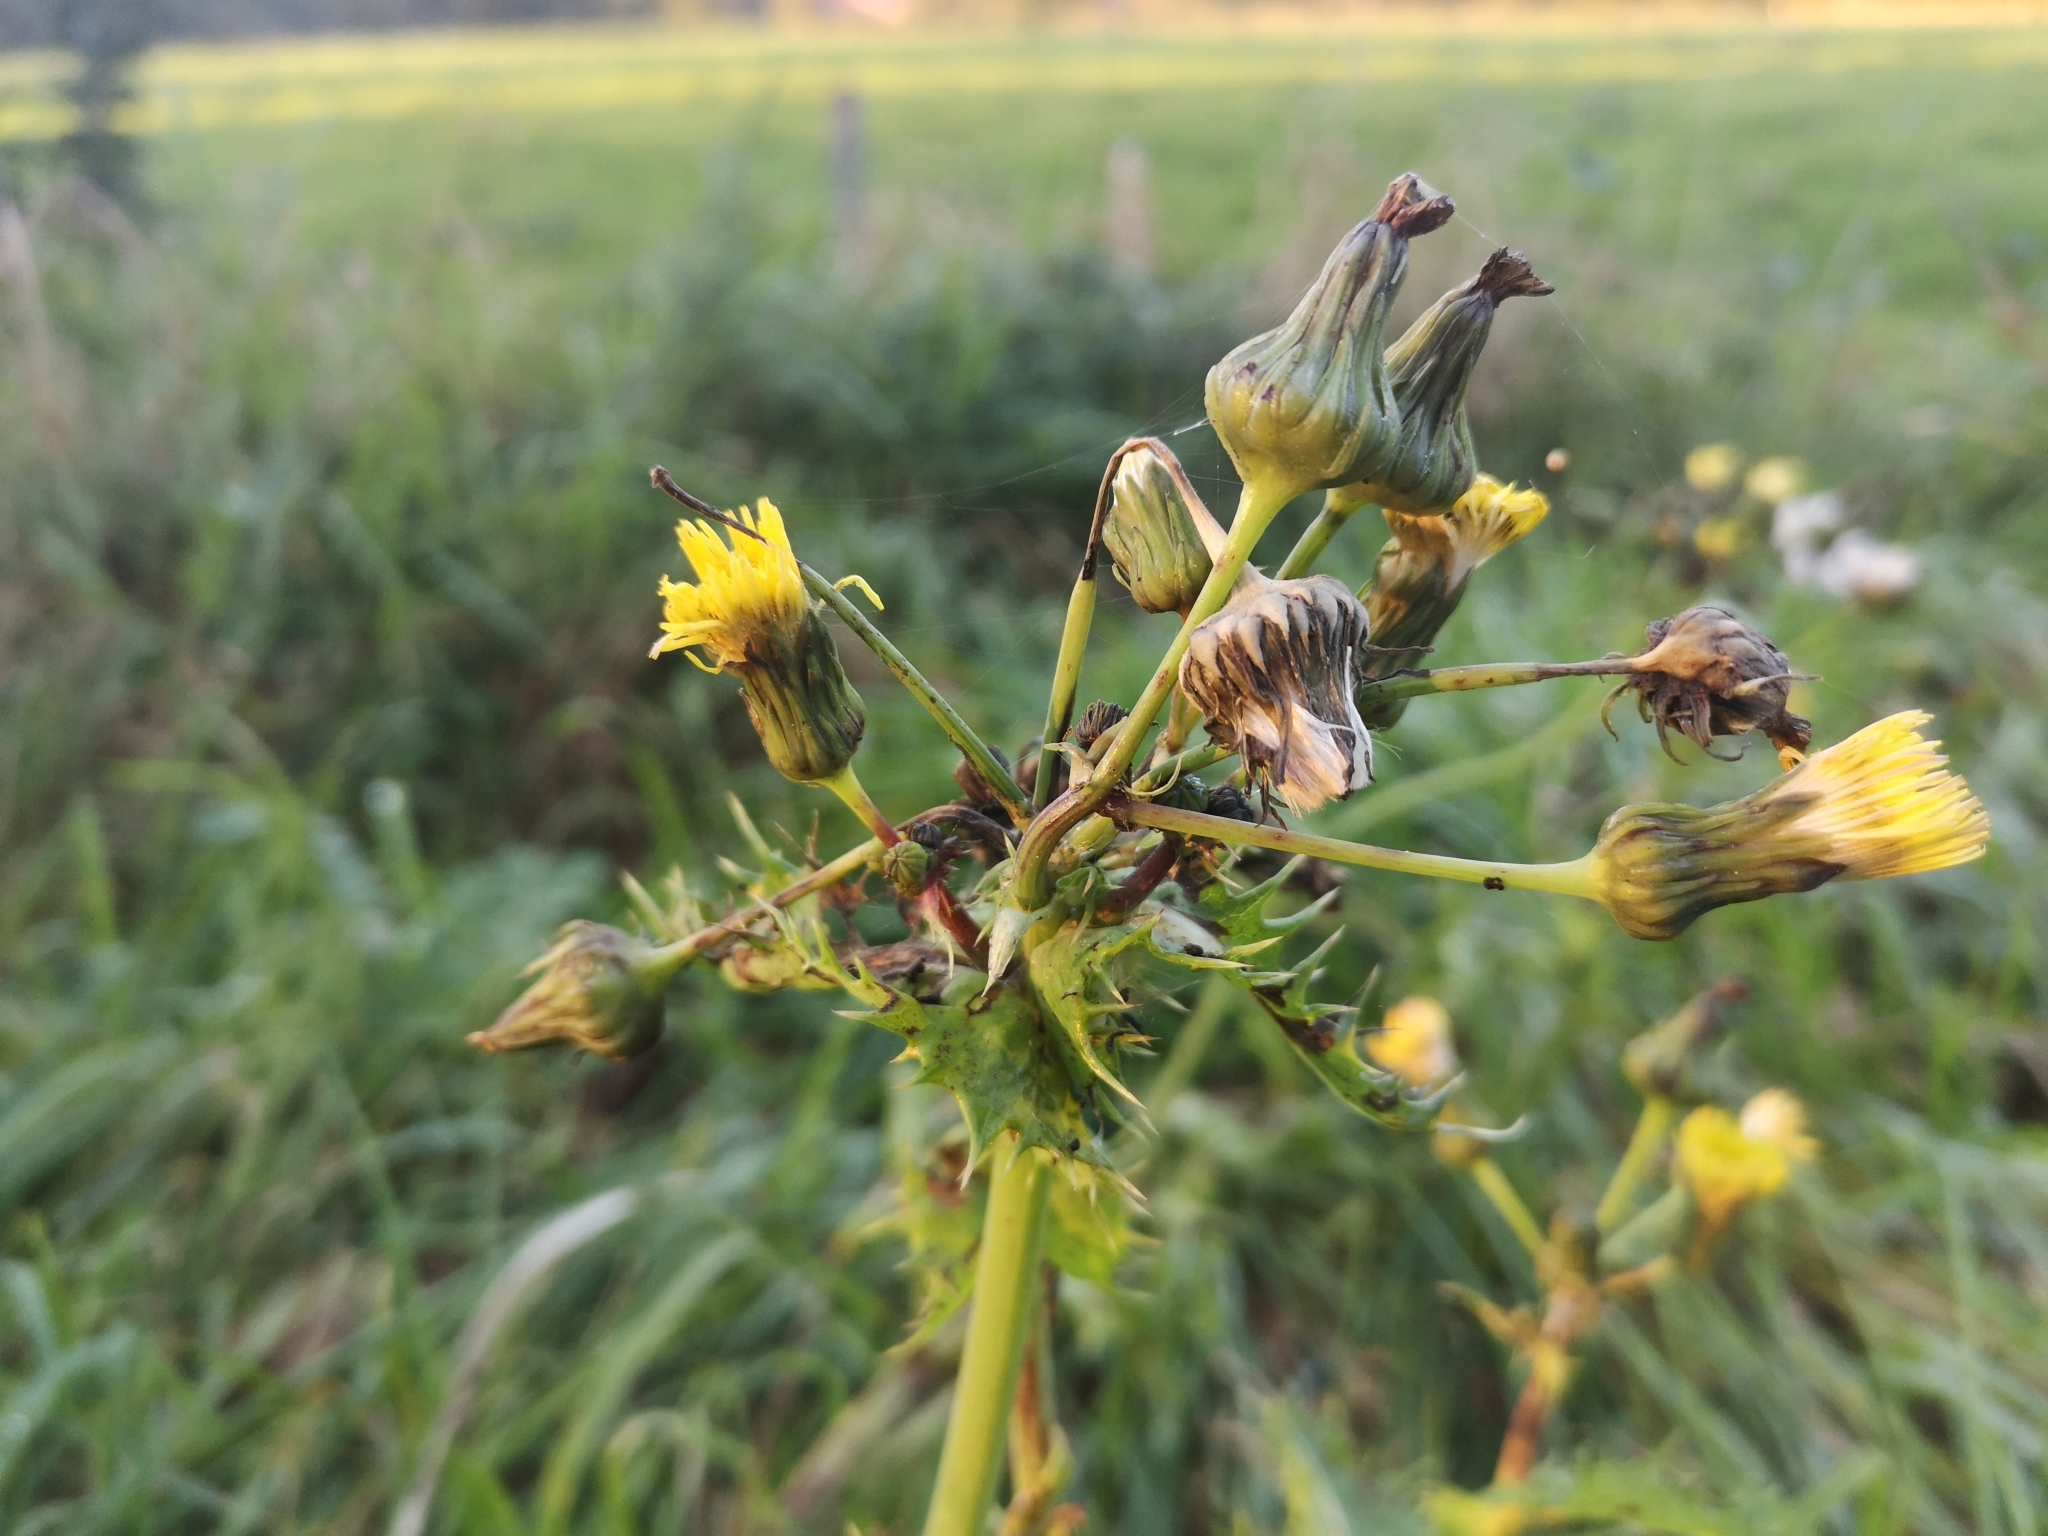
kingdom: Plantae
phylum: Tracheophyta
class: Magnoliopsida
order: Asterales
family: Asteraceae
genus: Sonchus
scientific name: Sonchus asper
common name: Prickly sow-thistle
